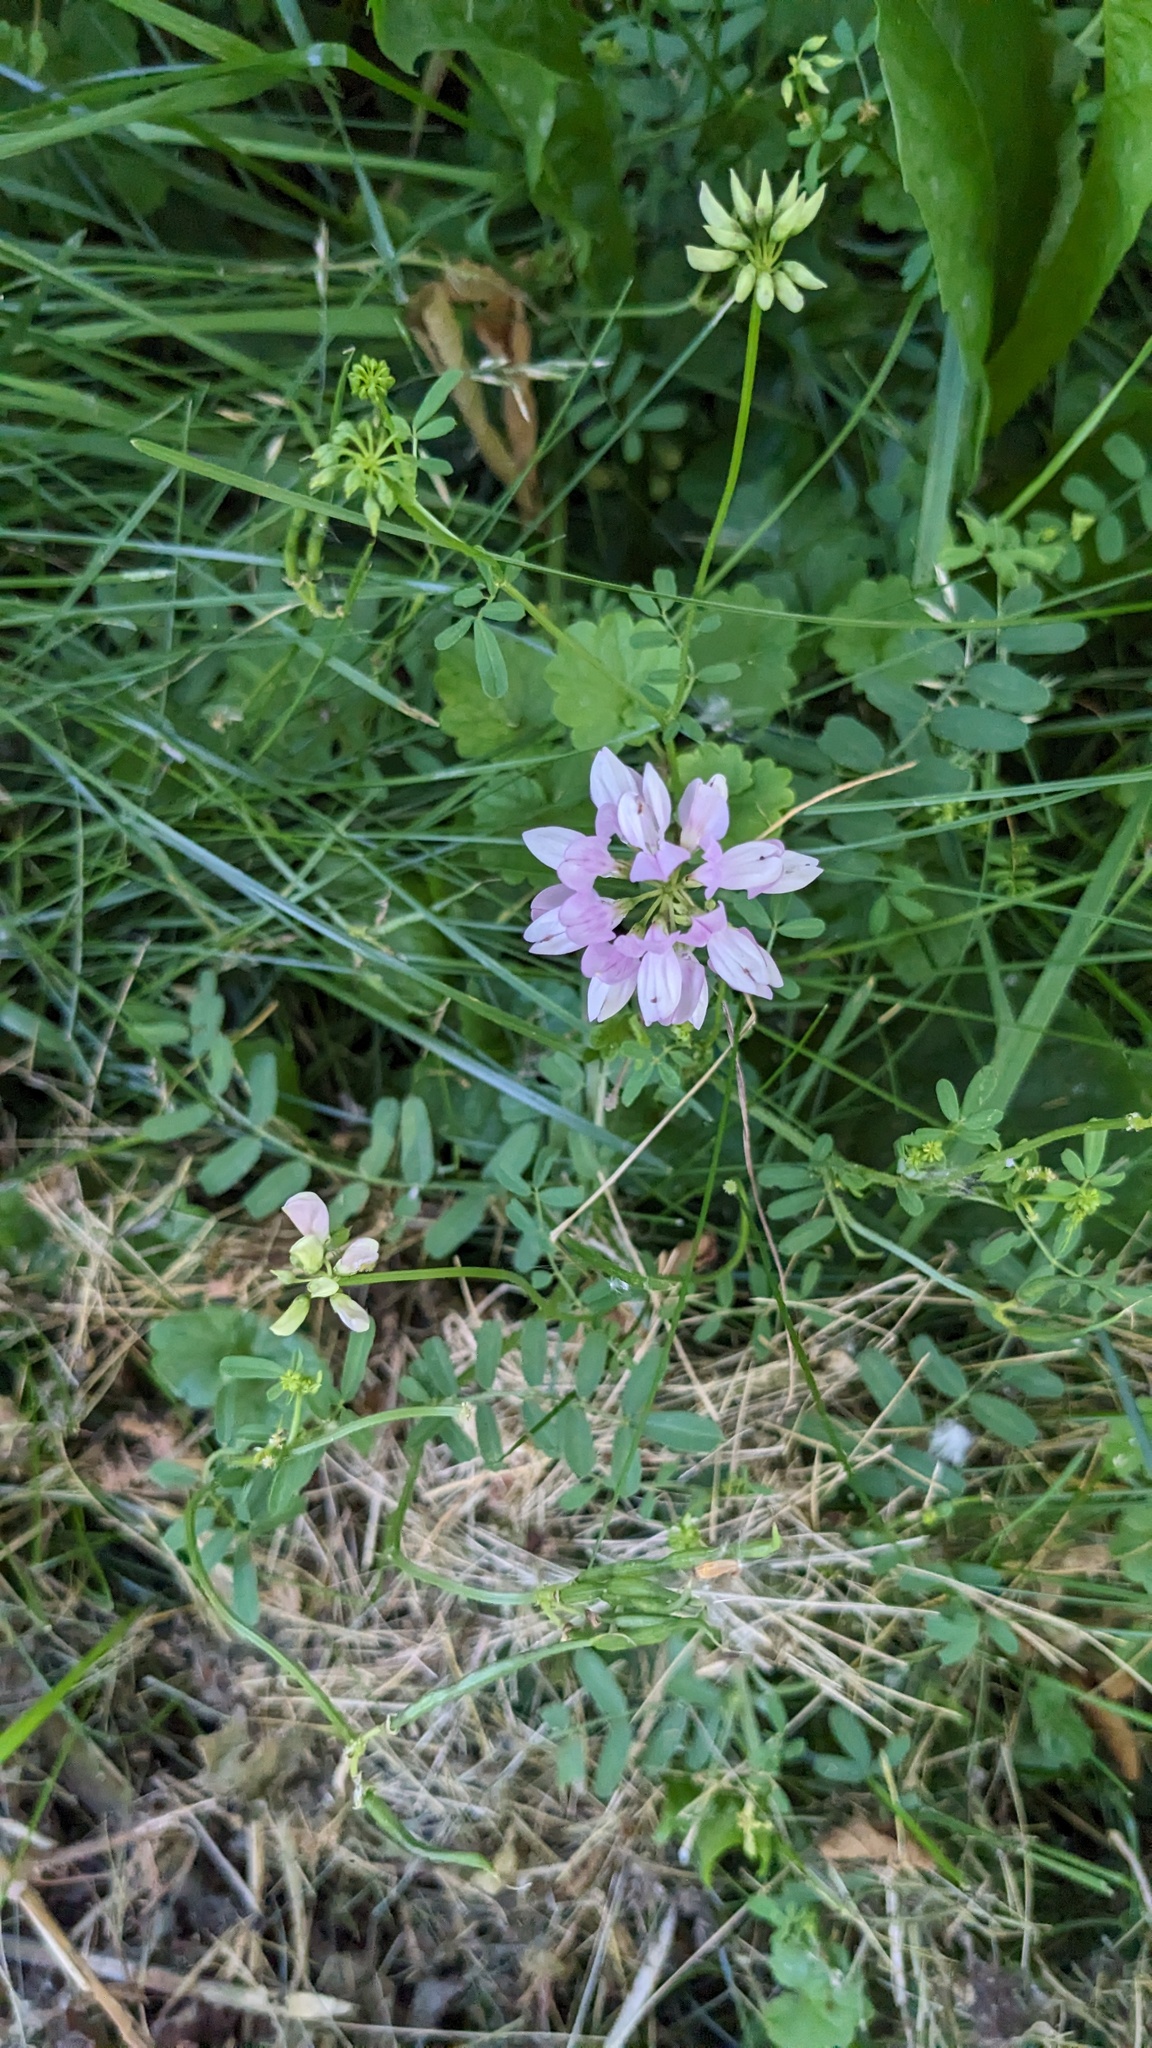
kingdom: Plantae
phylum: Tracheophyta
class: Magnoliopsida
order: Fabales
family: Fabaceae
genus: Coronilla
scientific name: Coronilla varia
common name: Crownvetch
